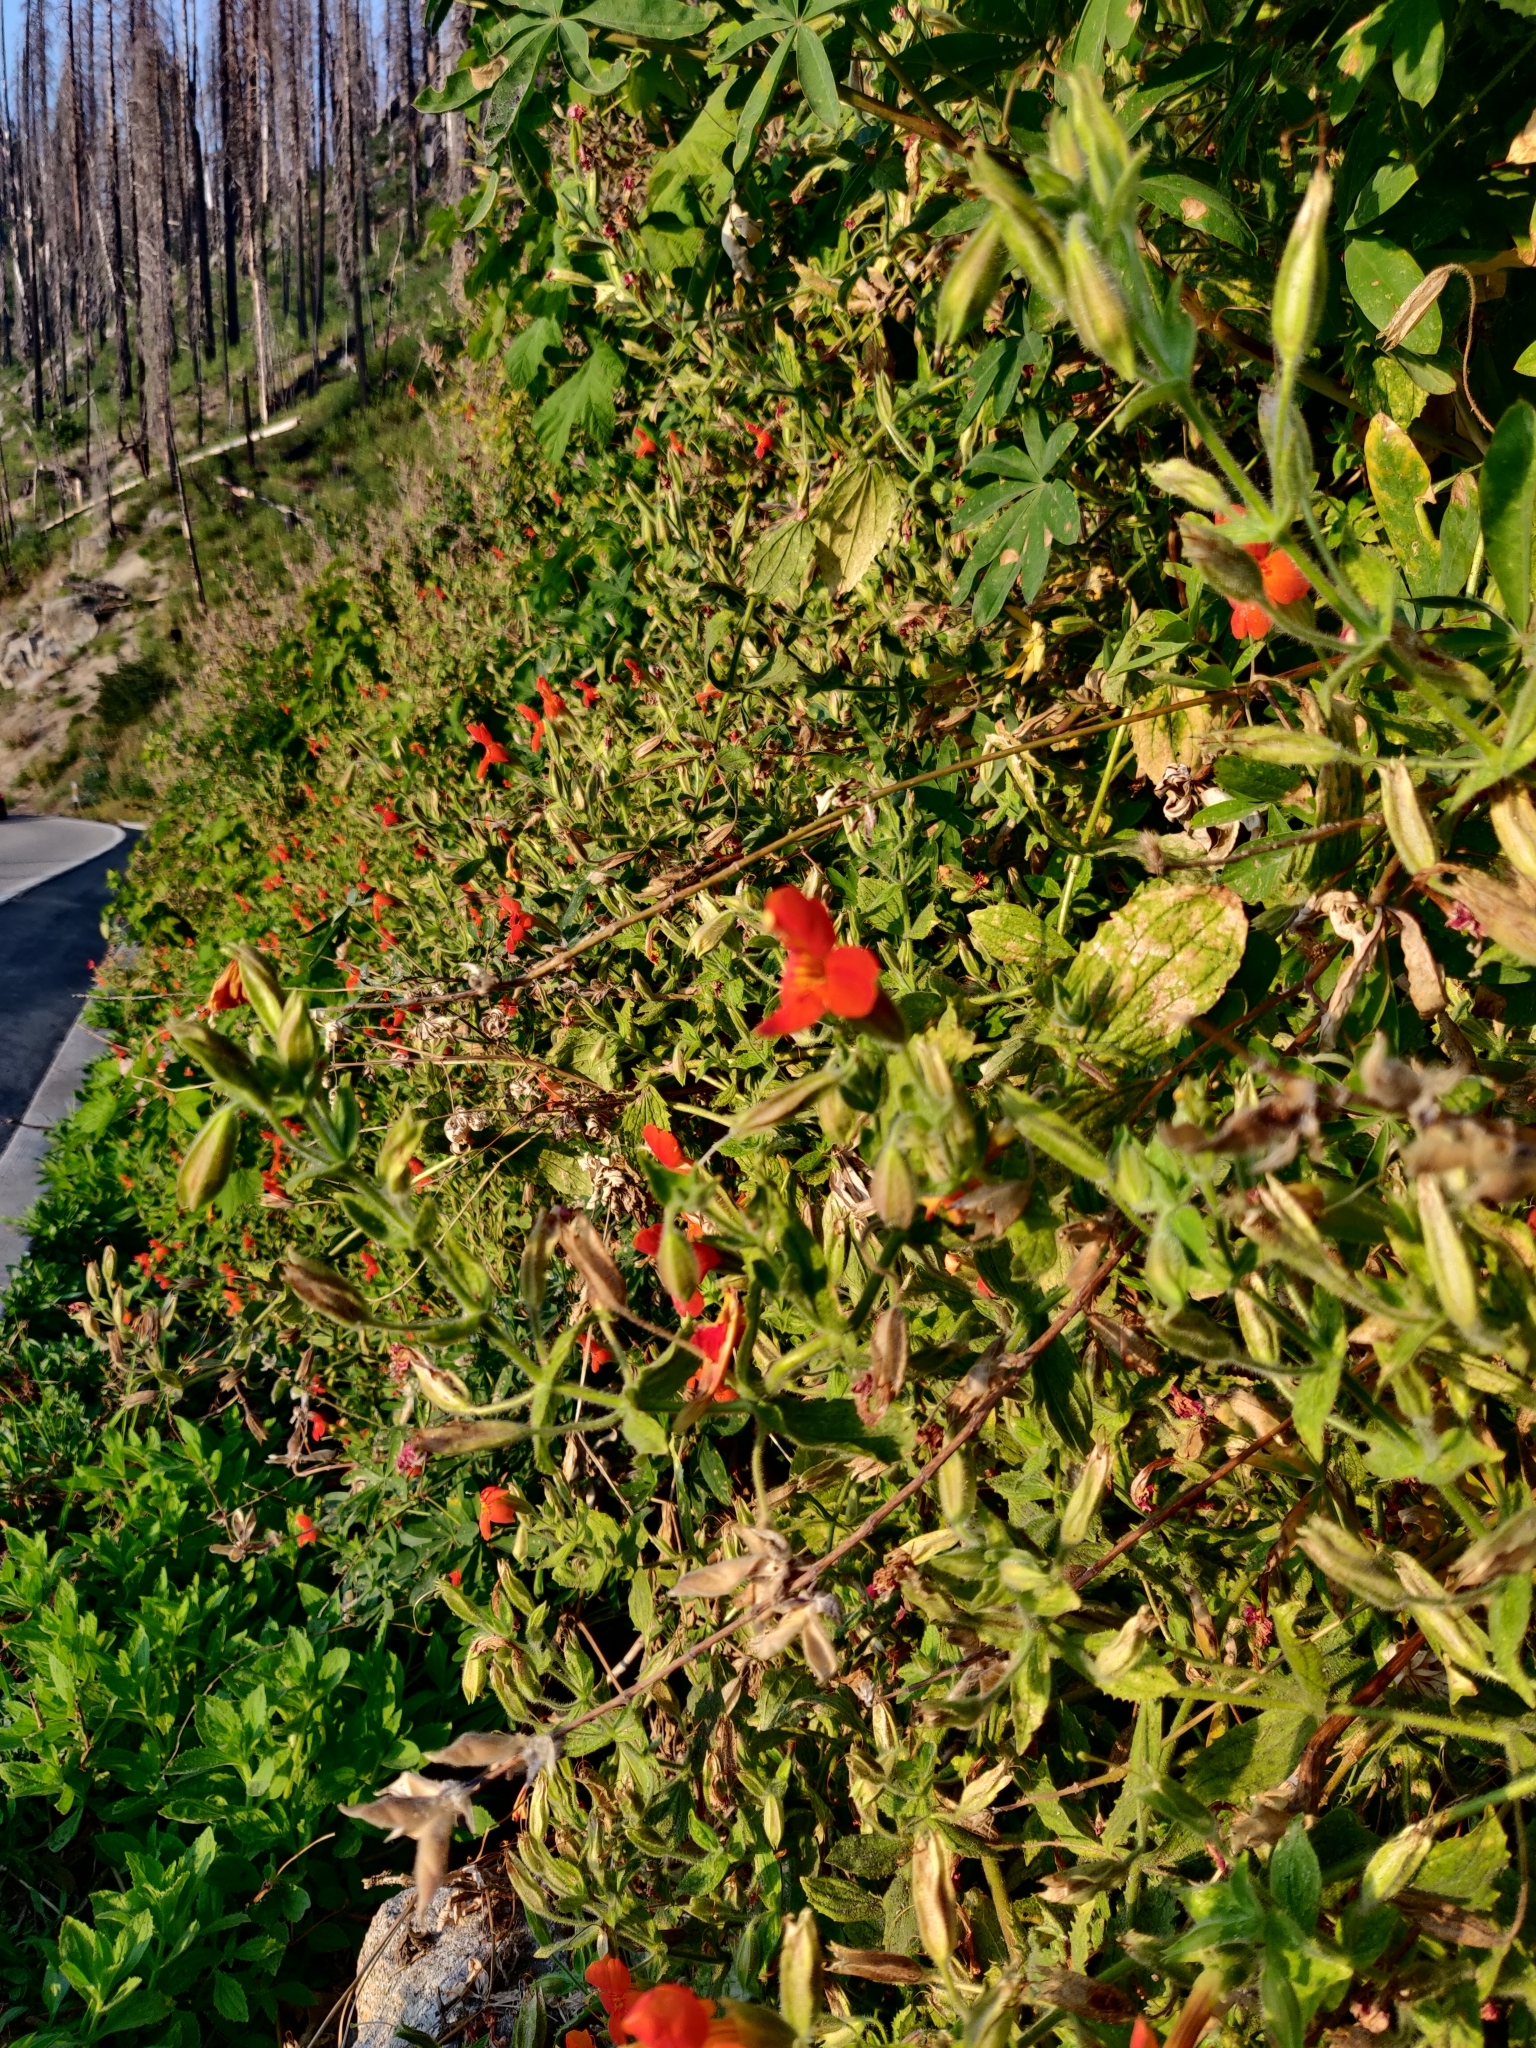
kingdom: Plantae
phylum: Tracheophyta
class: Magnoliopsida
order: Lamiales
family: Phrymaceae
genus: Erythranthe
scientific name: Erythranthe cardinalis
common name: Scarlet monkey-flower
